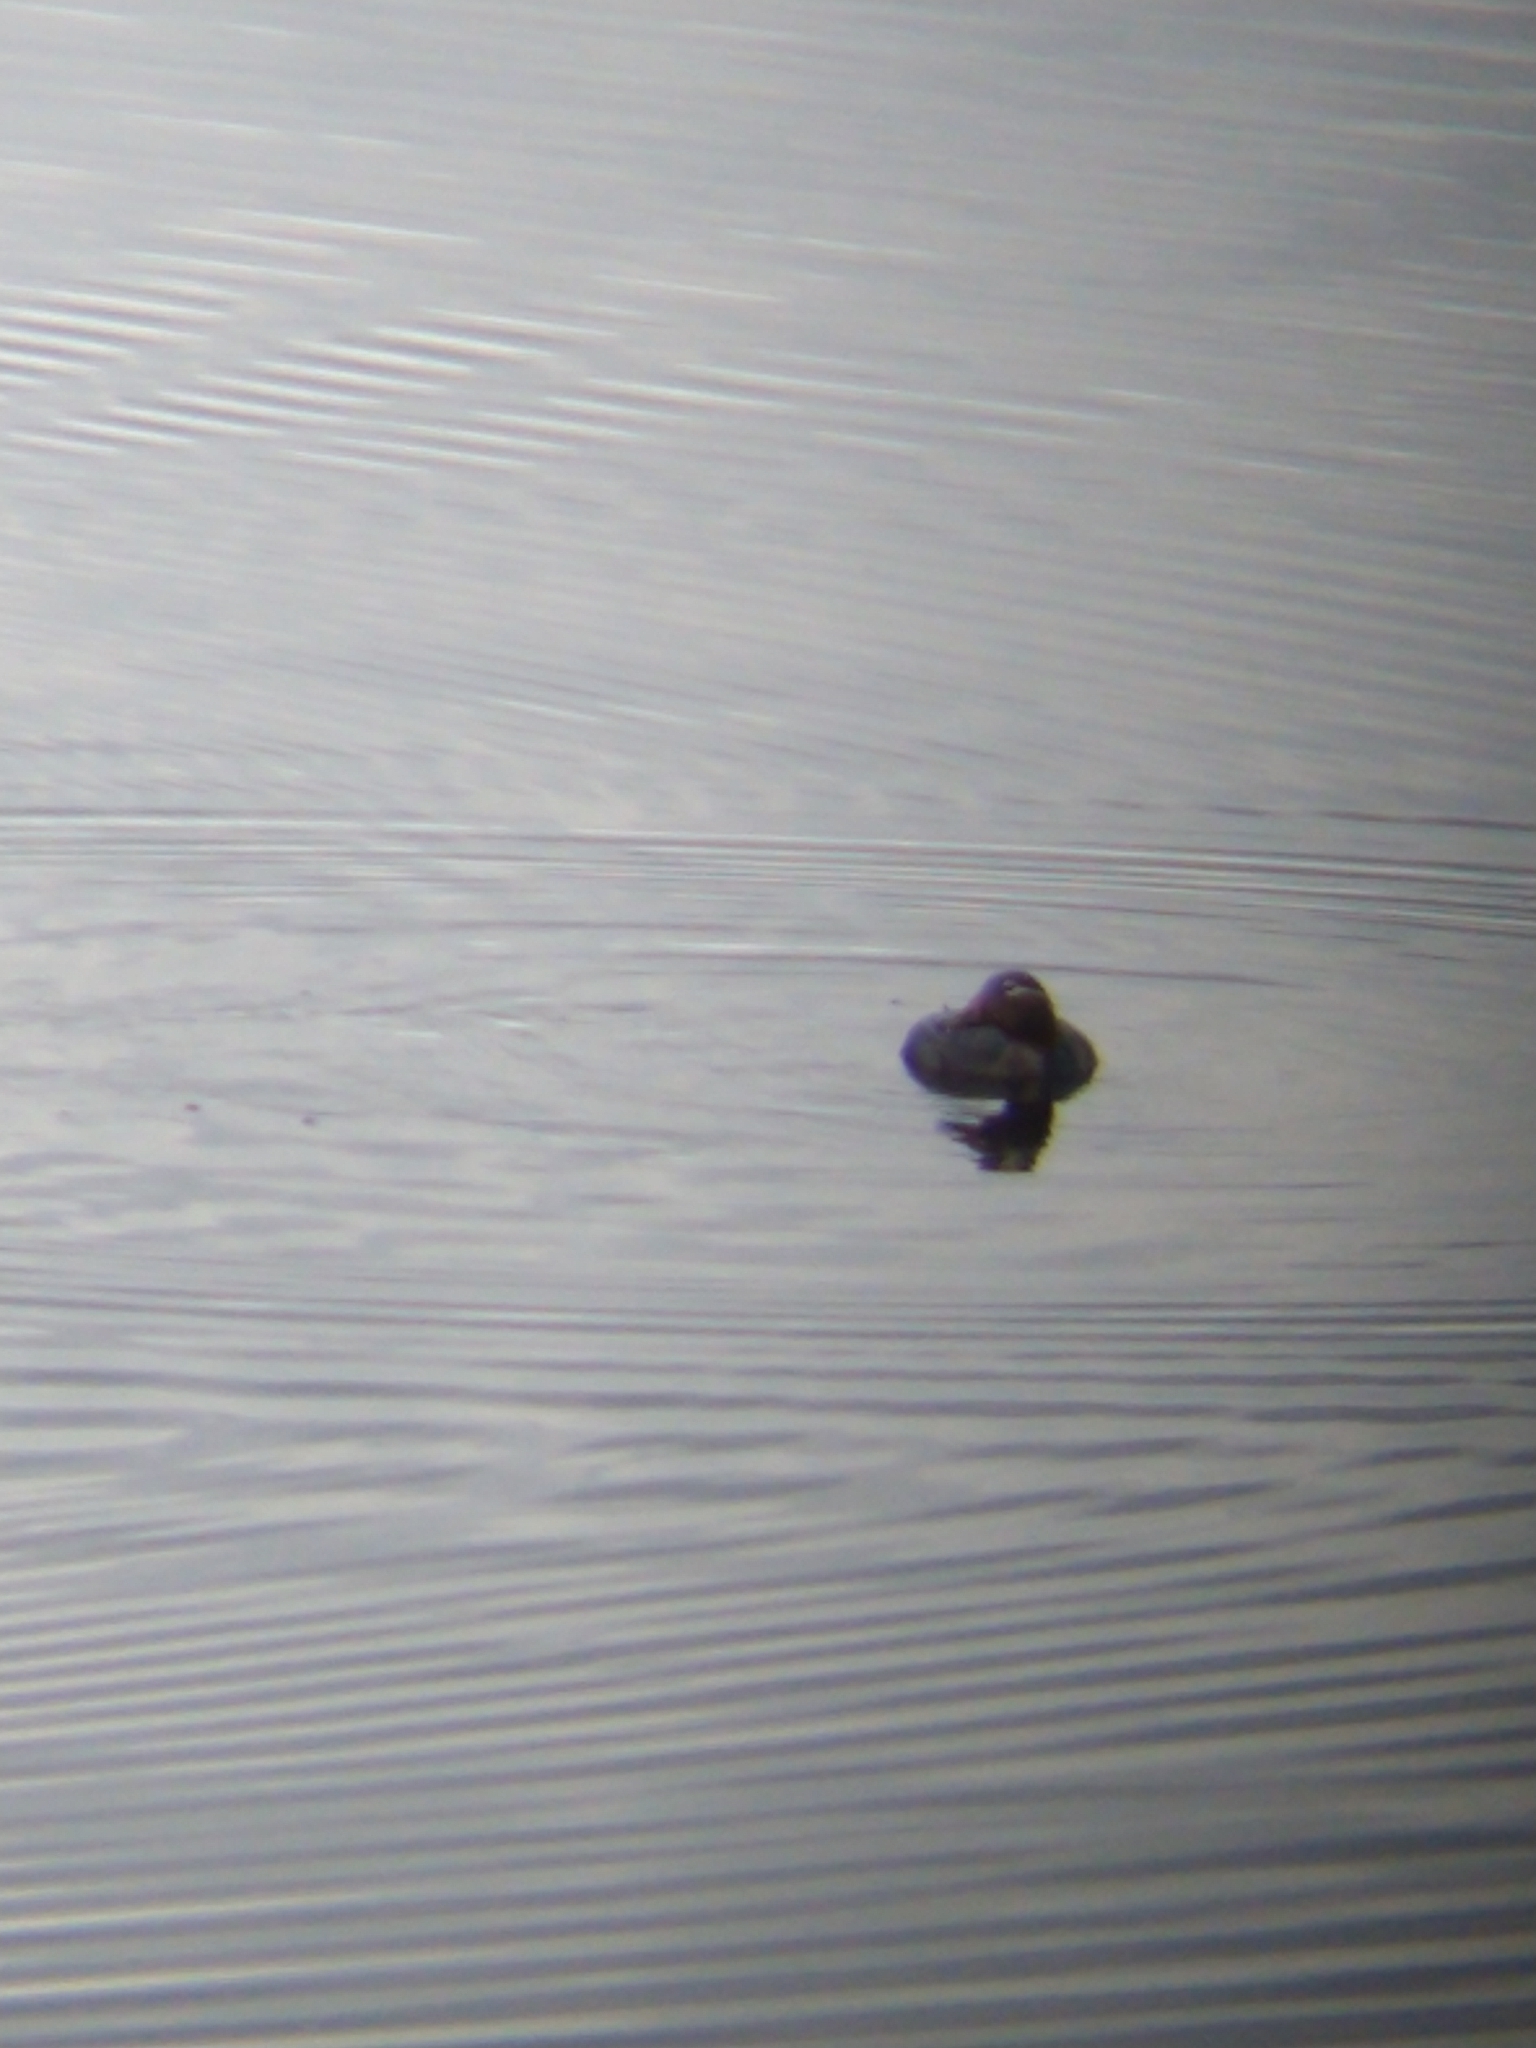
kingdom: Animalia
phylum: Chordata
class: Aves
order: Anseriformes
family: Anatidae
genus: Tachyeres
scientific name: Tachyeres patachonicus
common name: Flying steamer duck
